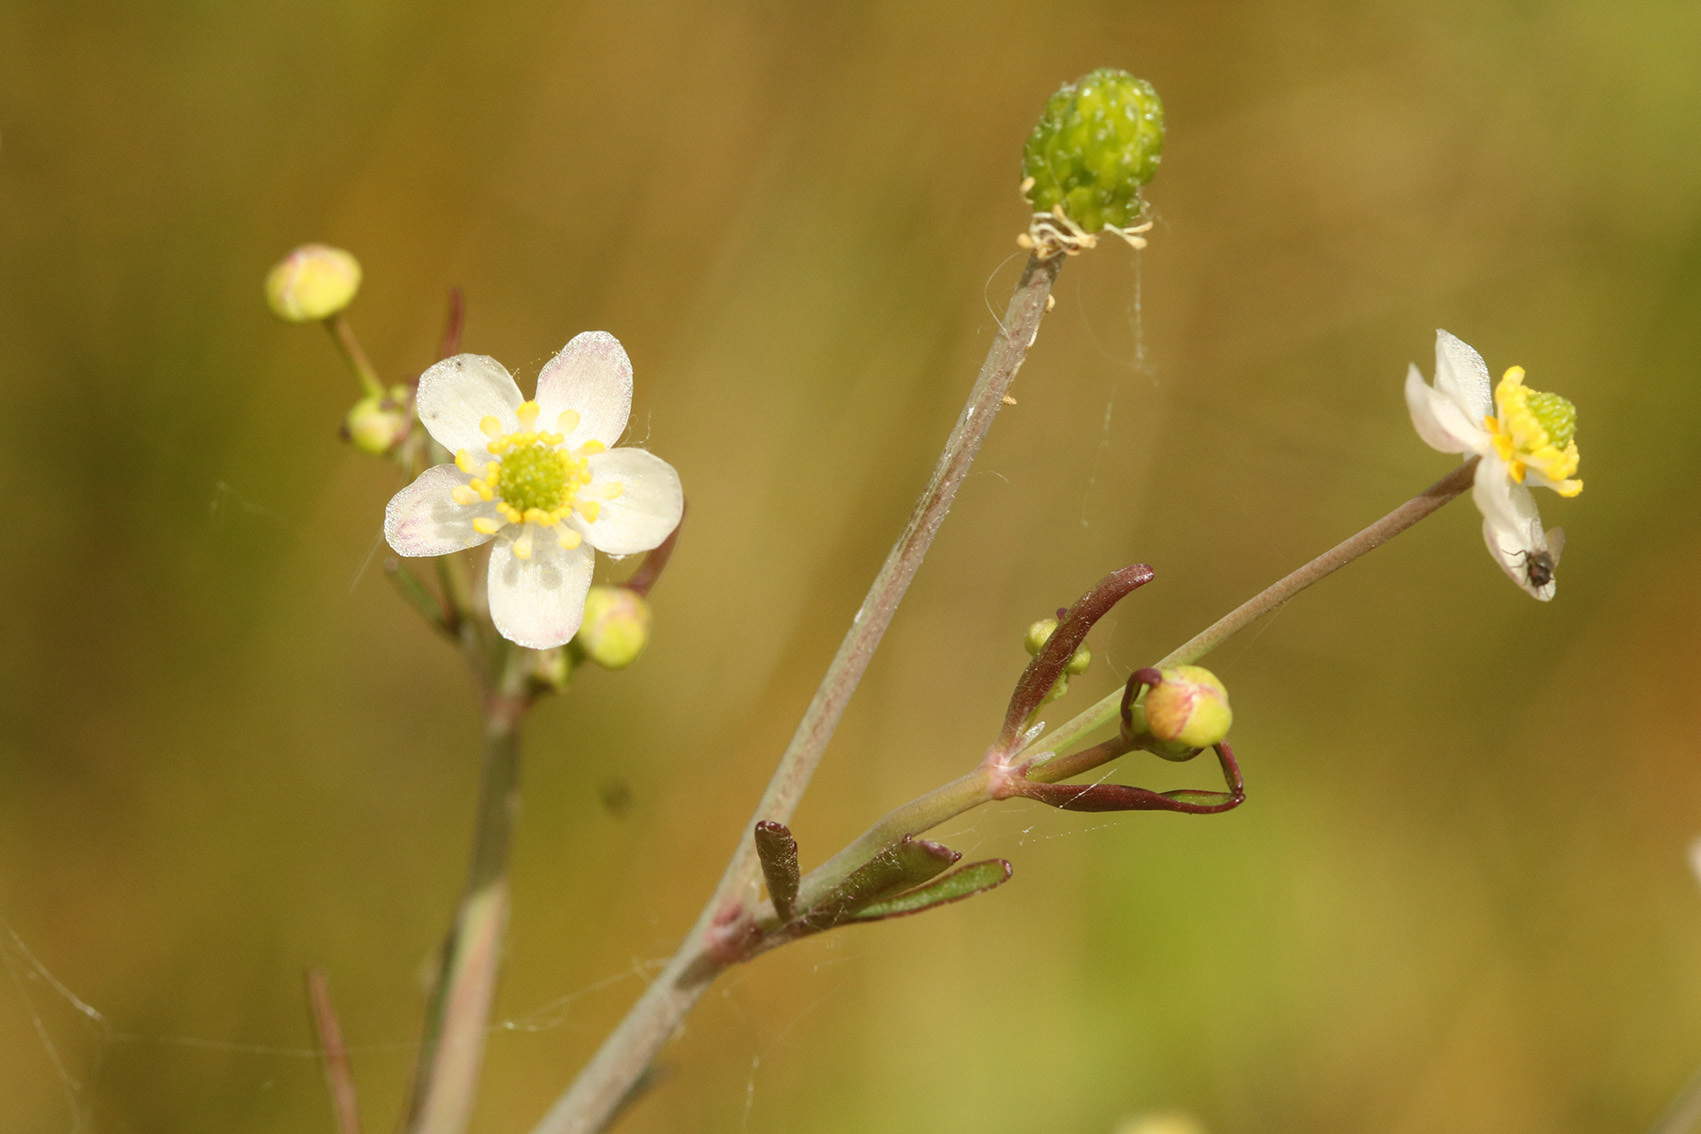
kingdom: Plantae
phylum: Tracheophyta
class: Magnoliopsida
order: Ranunculales
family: Ranunculaceae
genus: Ranunculus
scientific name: Ranunculus apiifolius
